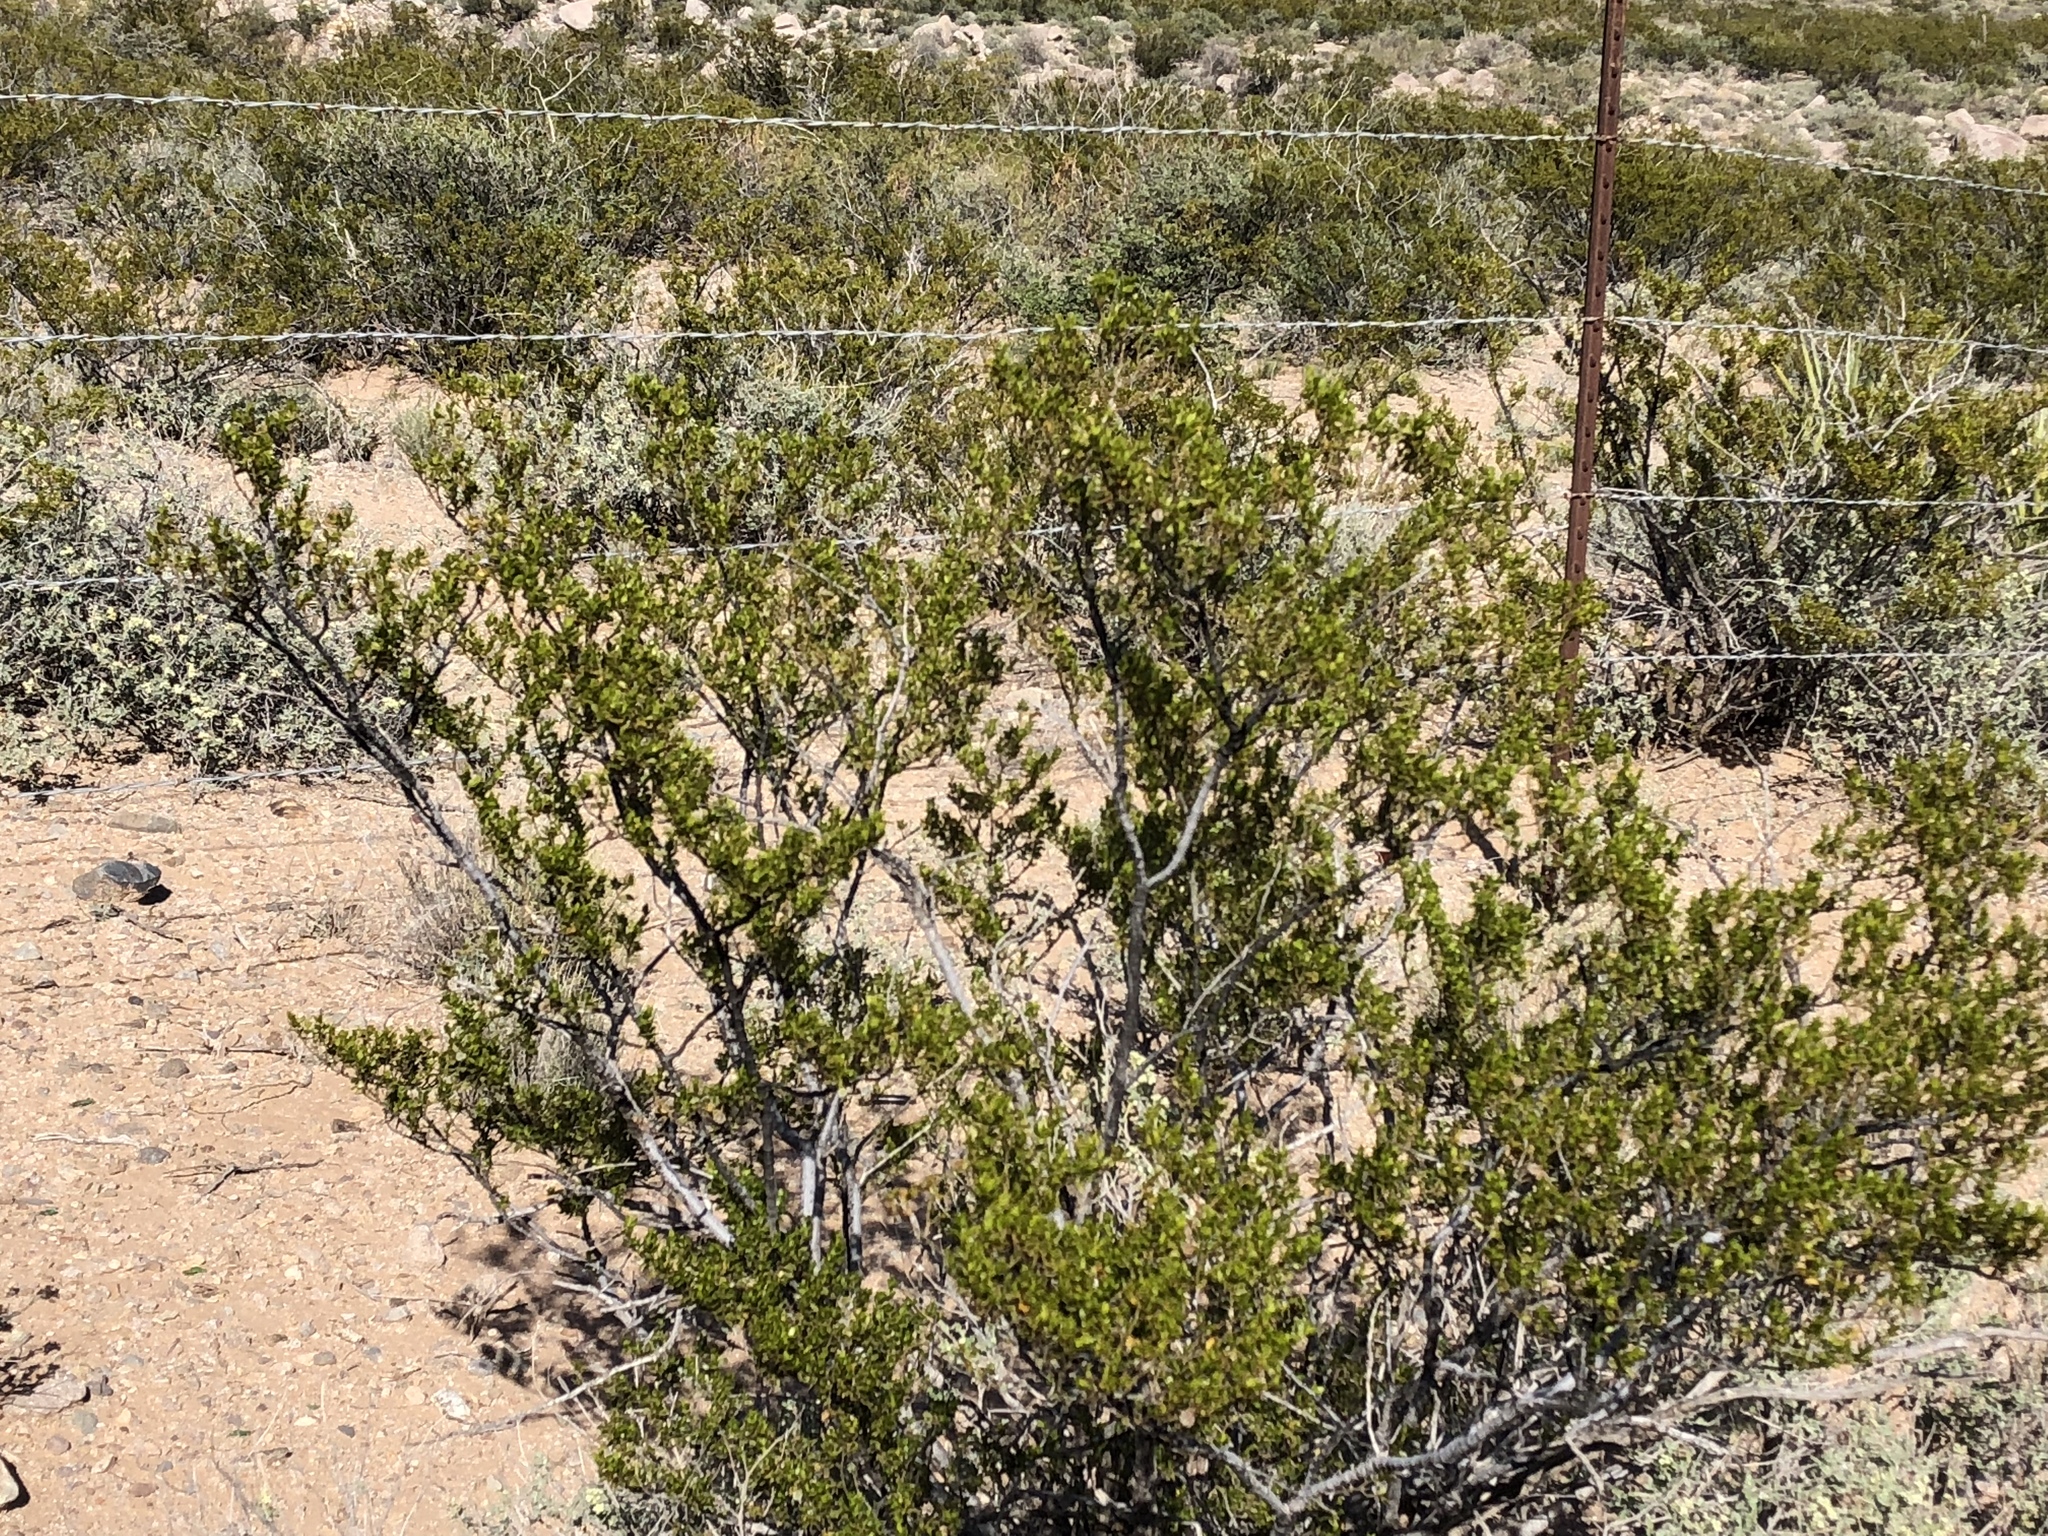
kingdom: Plantae
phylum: Tracheophyta
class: Magnoliopsida
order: Zygophyllales
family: Zygophyllaceae
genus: Larrea
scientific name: Larrea tridentata
